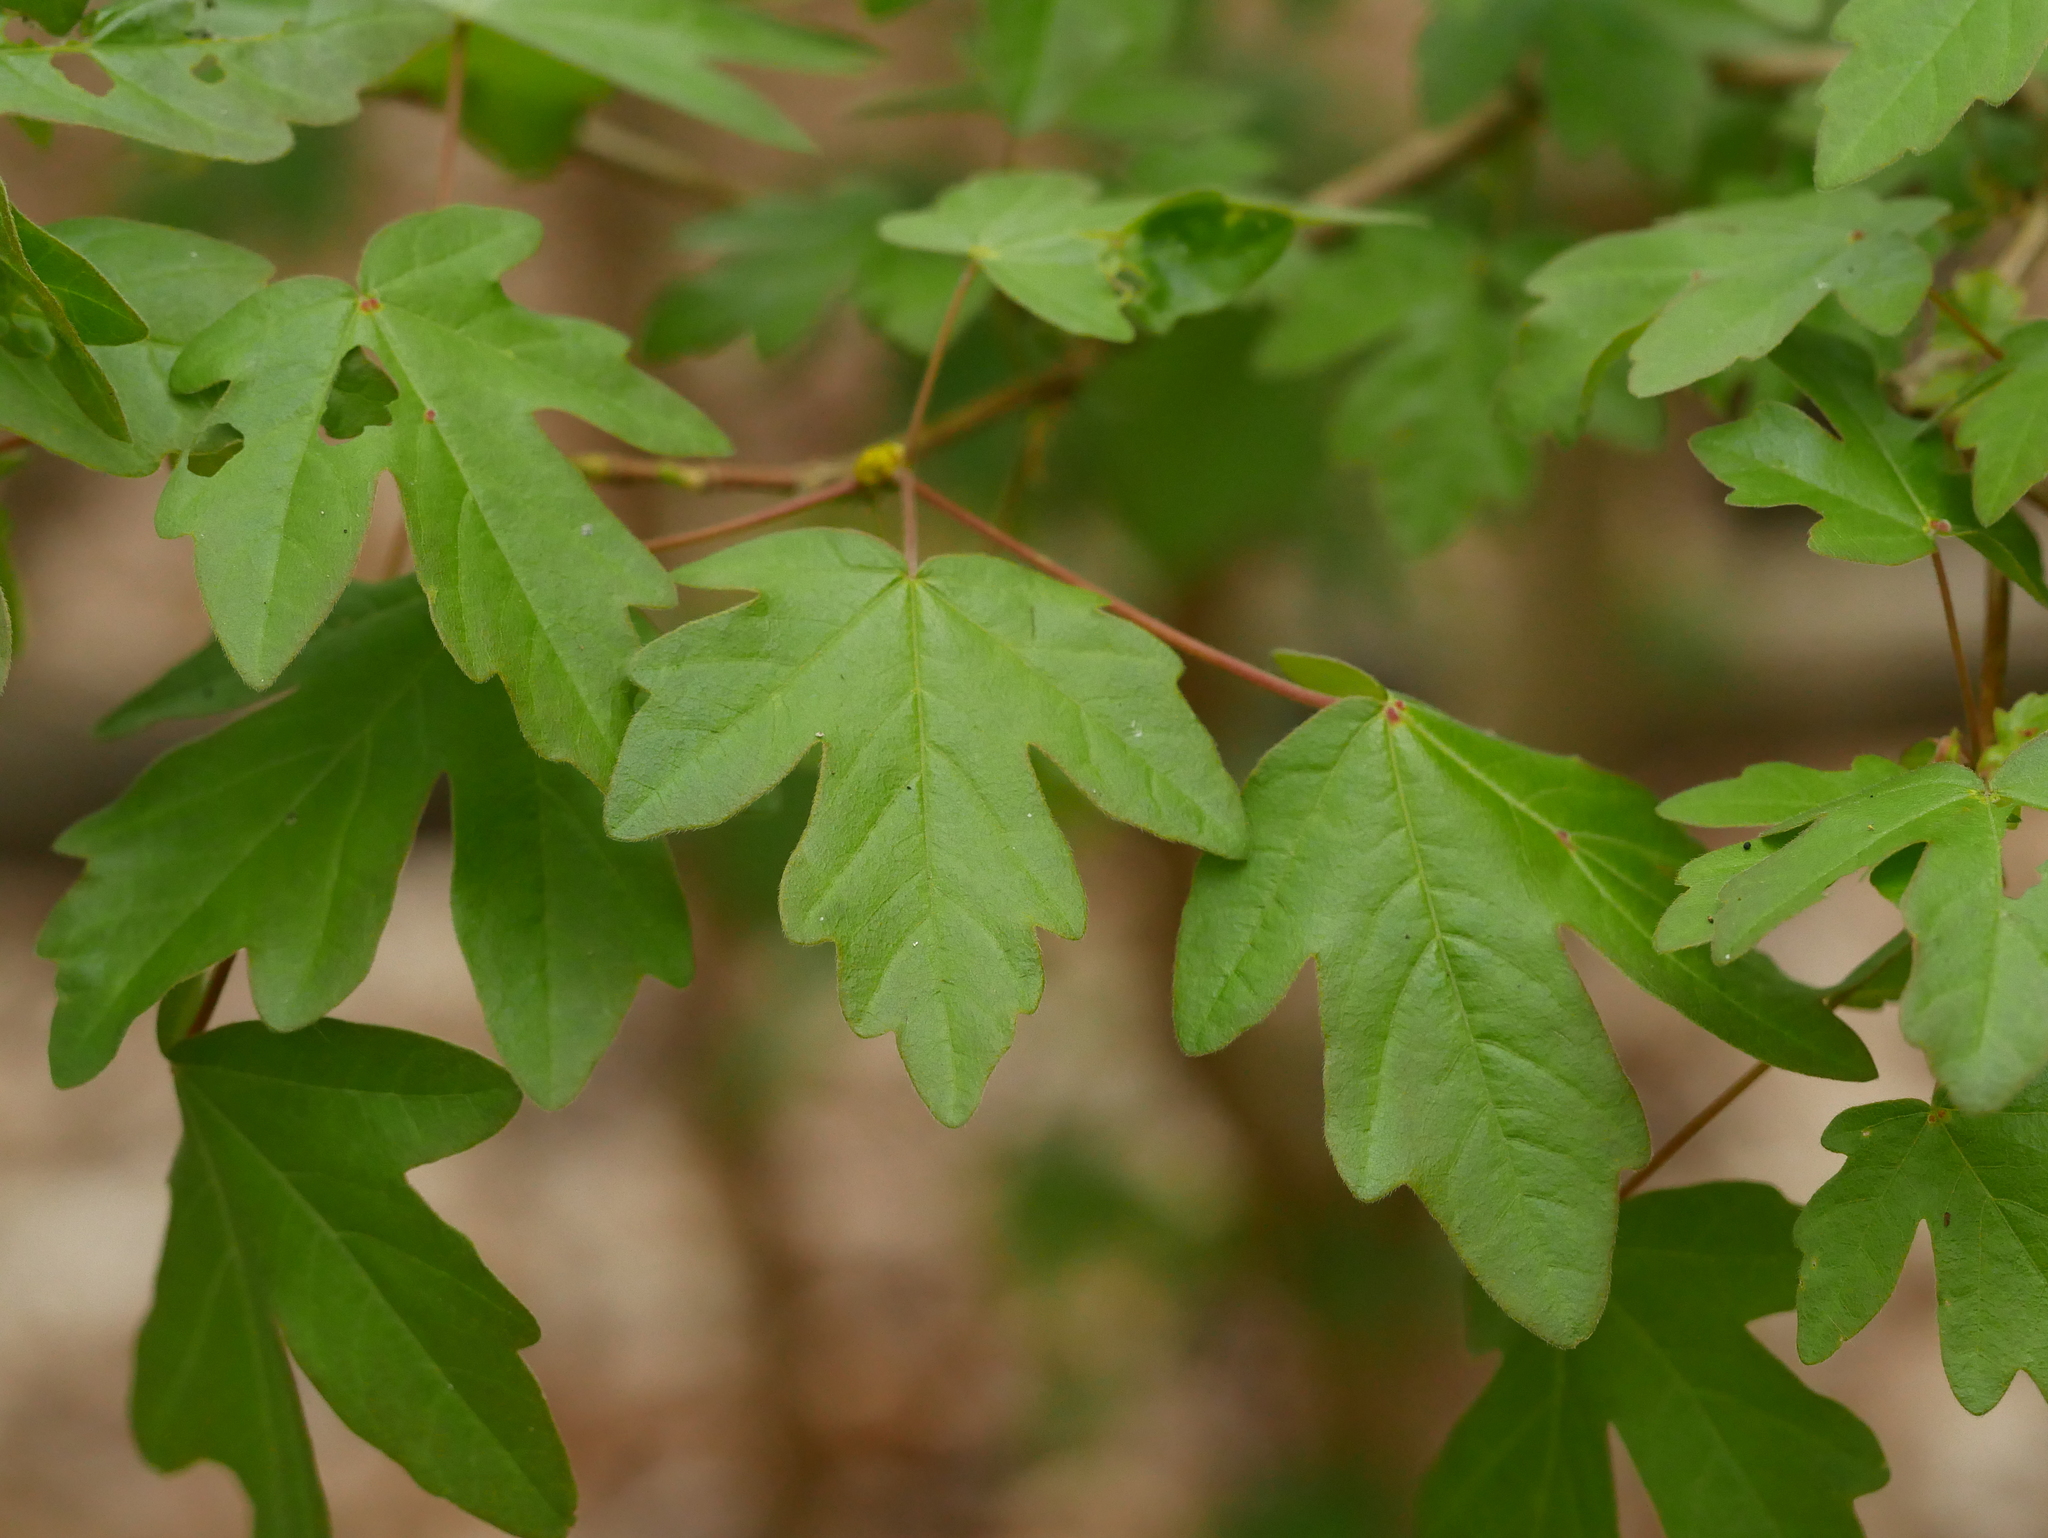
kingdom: Plantae
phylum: Tracheophyta
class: Magnoliopsida
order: Sapindales
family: Sapindaceae
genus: Acer
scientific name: Acer campestre
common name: Field maple
